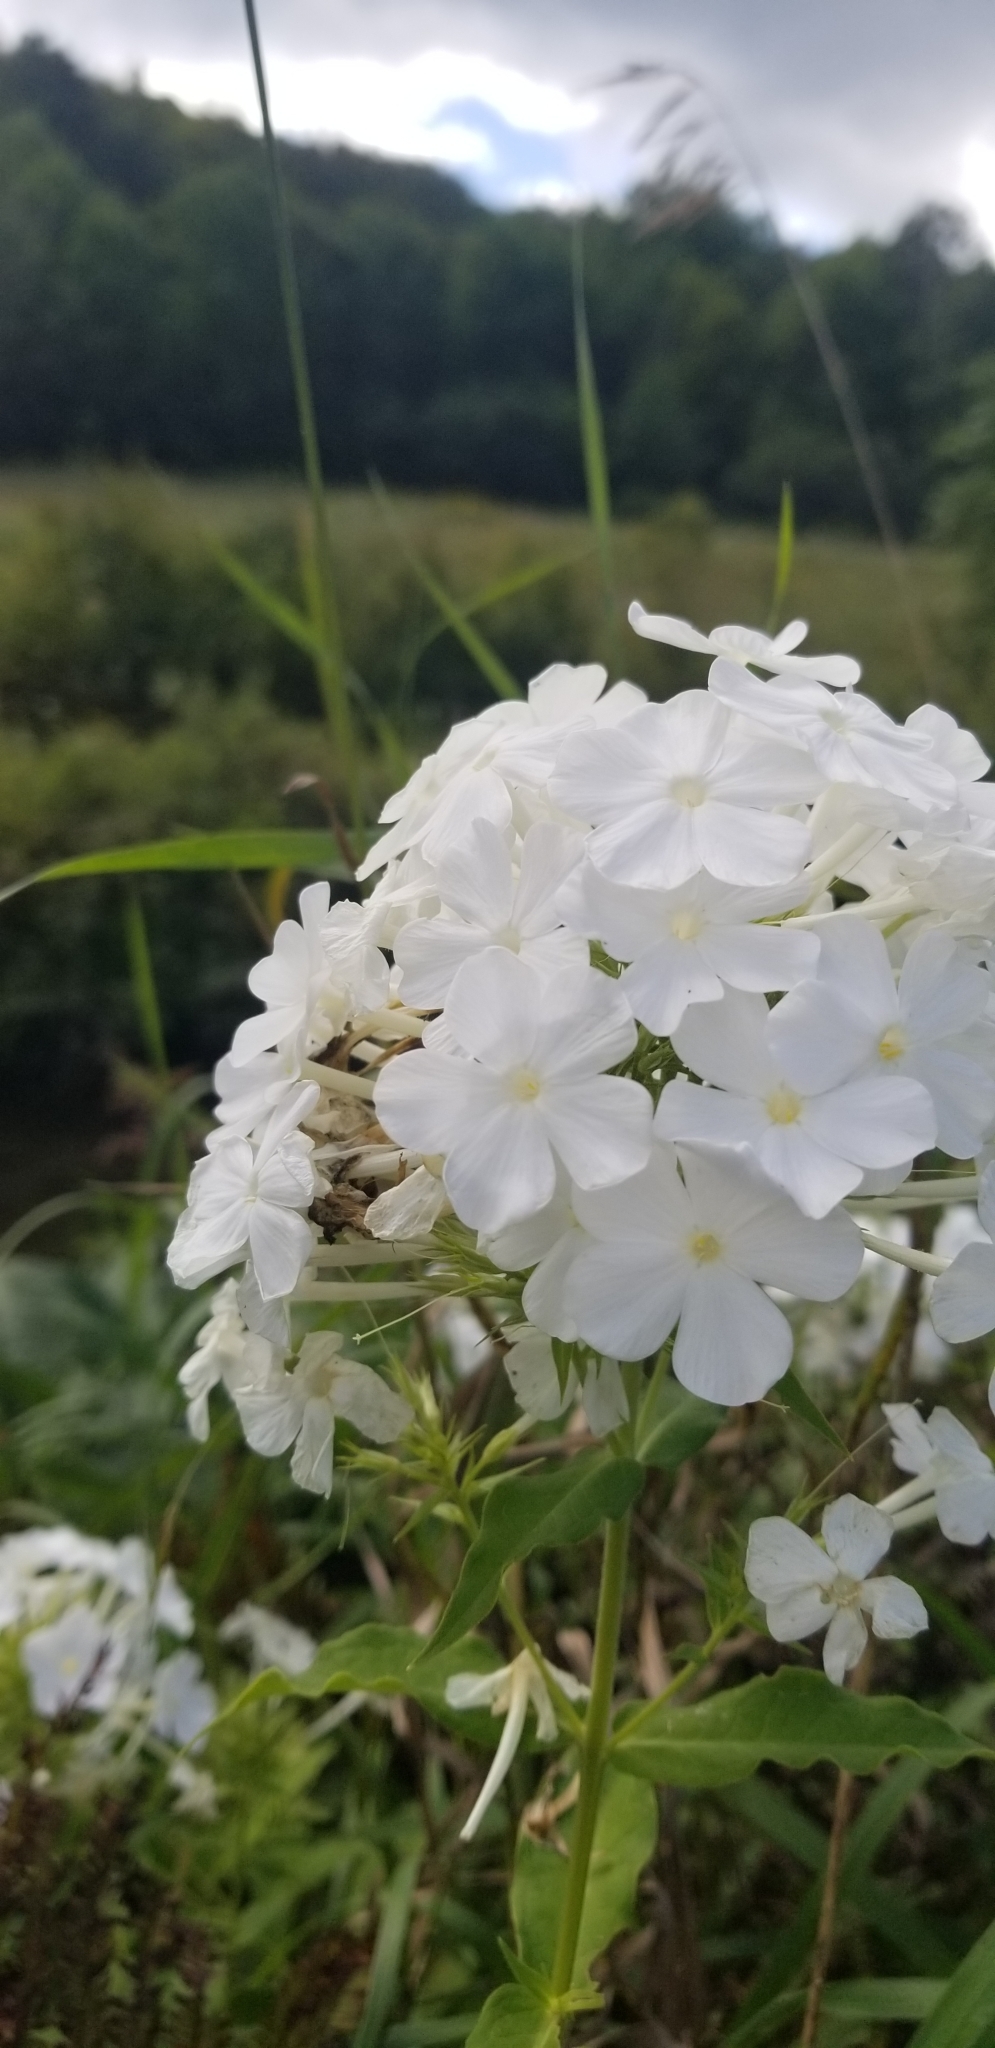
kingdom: Plantae
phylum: Tracheophyta
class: Magnoliopsida
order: Ericales
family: Polemoniaceae
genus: Phlox
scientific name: Phlox paniculata
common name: Fall phlox
